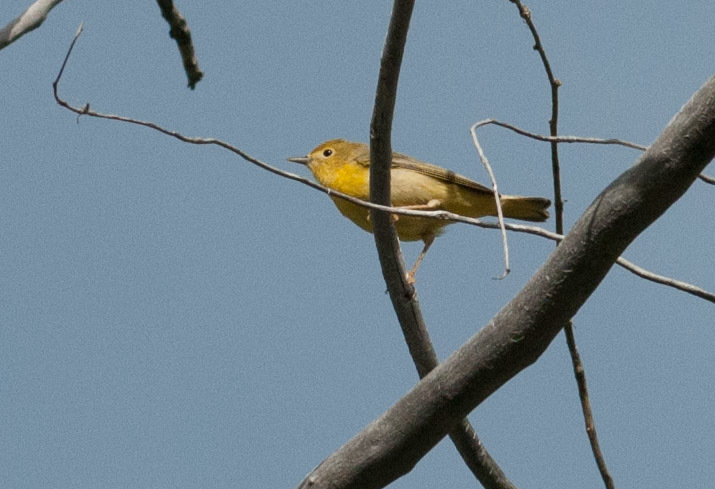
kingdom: Animalia
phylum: Chordata
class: Aves
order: Passeriformes
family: Parulidae
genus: Setophaga
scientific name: Setophaga petechia
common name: Yellow warbler
